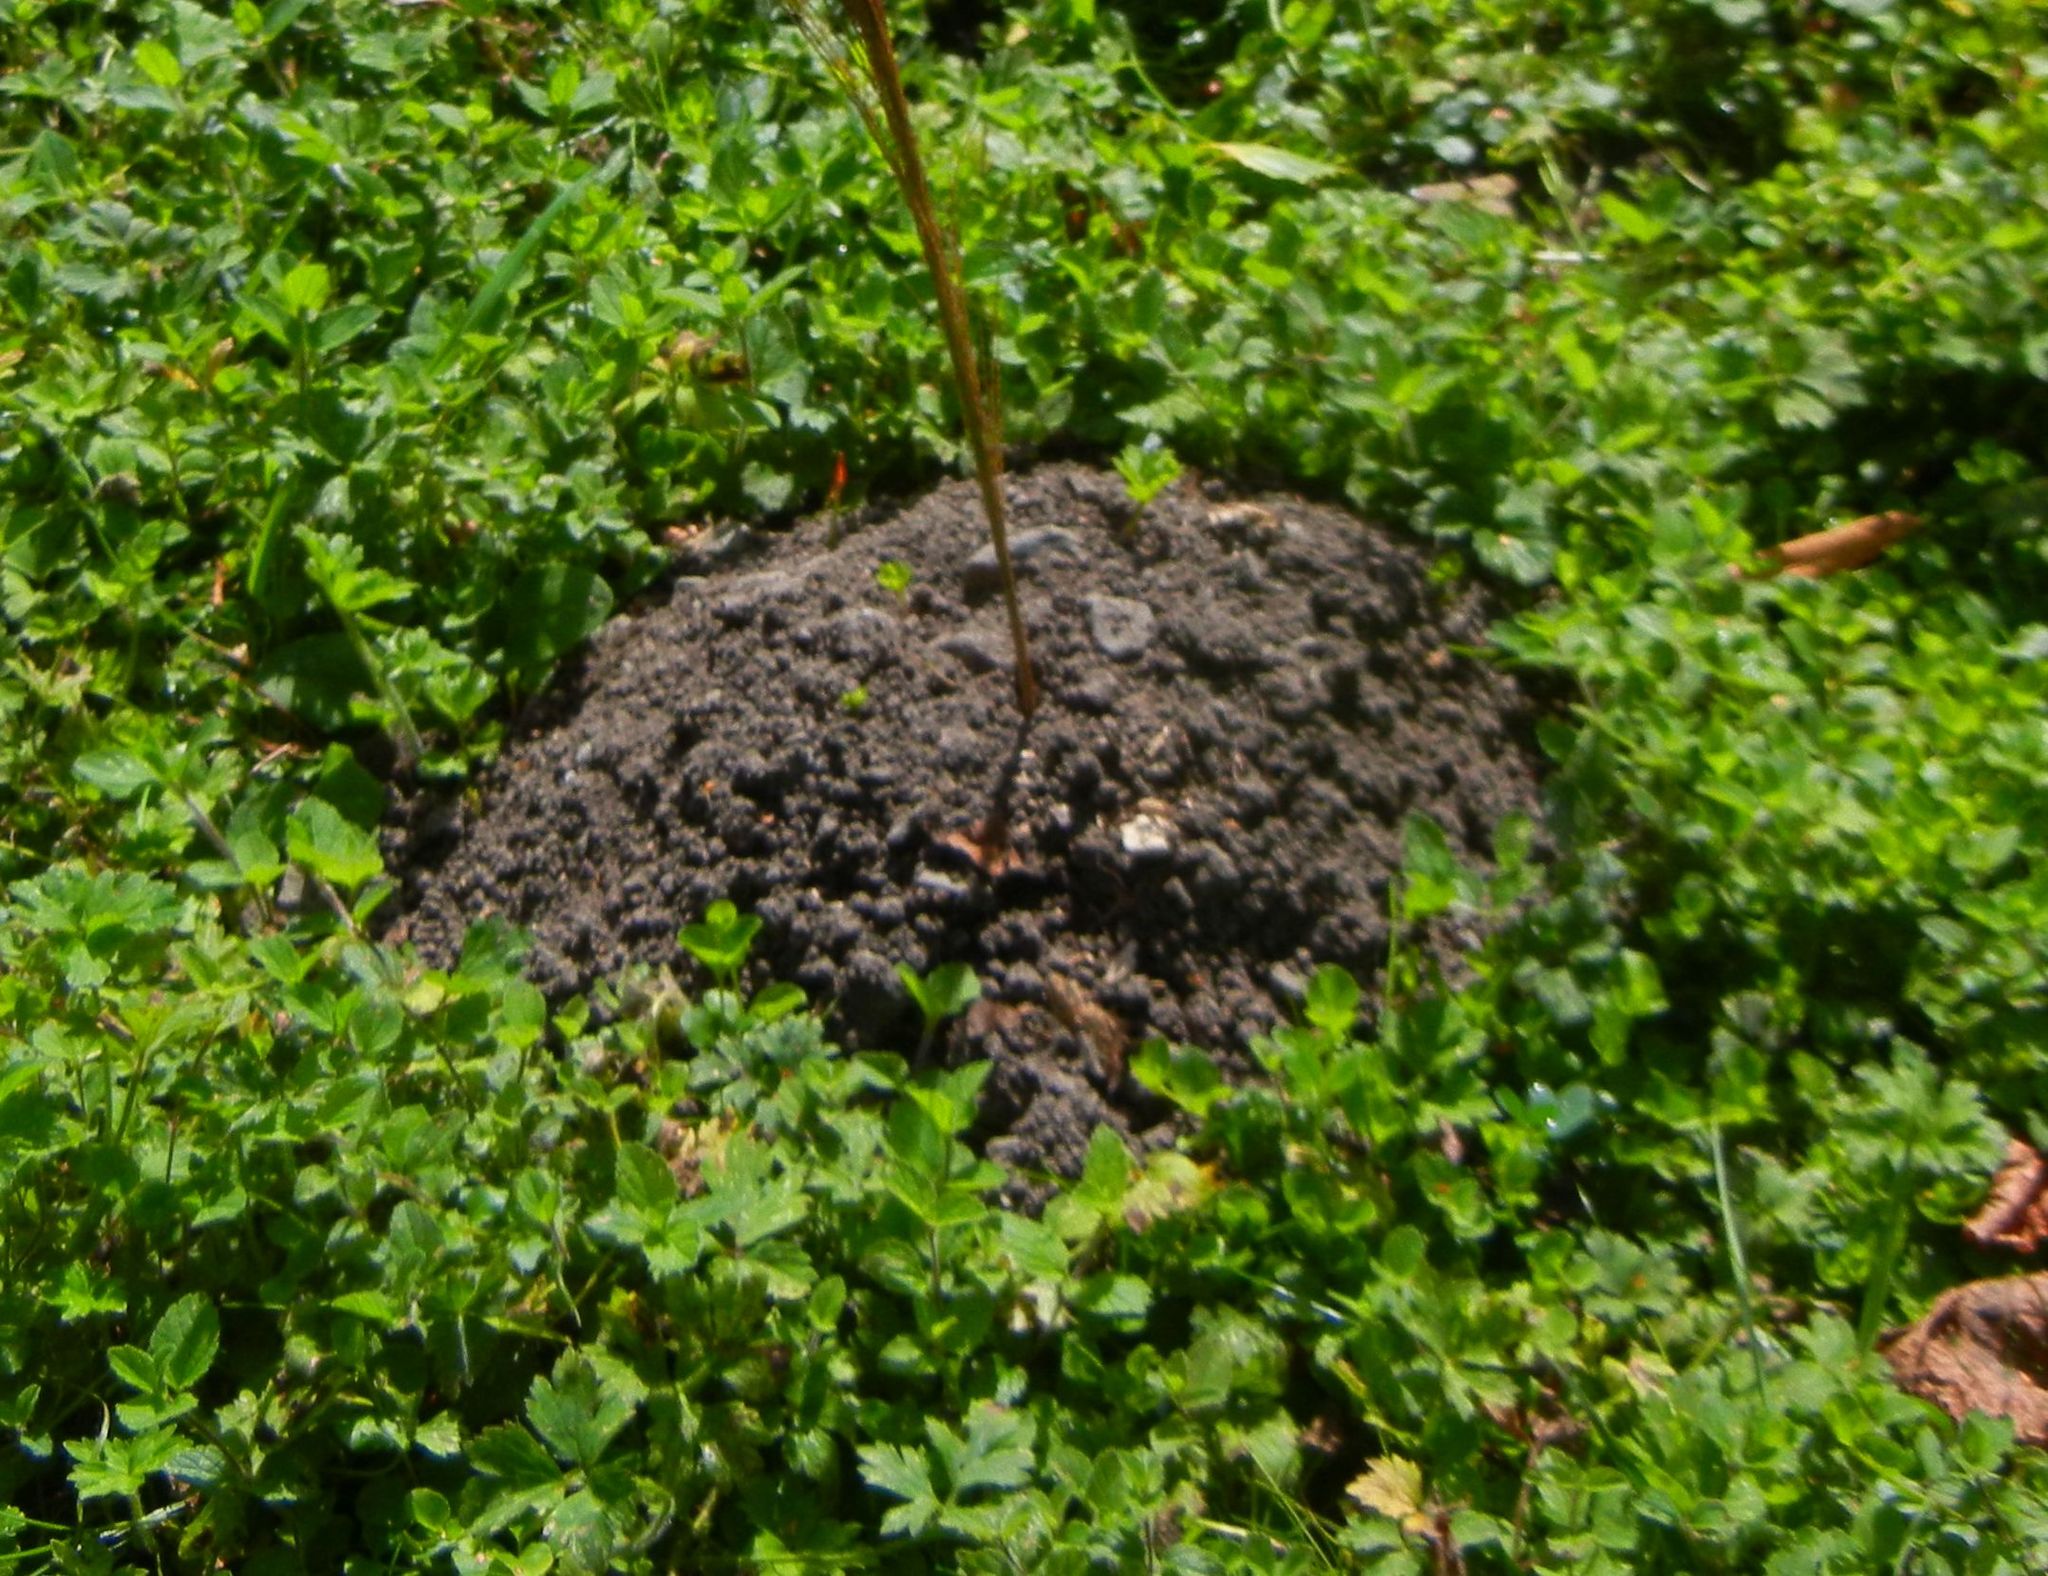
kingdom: Animalia
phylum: Chordata
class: Mammalia
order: Soricomorpha
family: Talpidae
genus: Talpa
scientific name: Talpa europaea
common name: European mole
